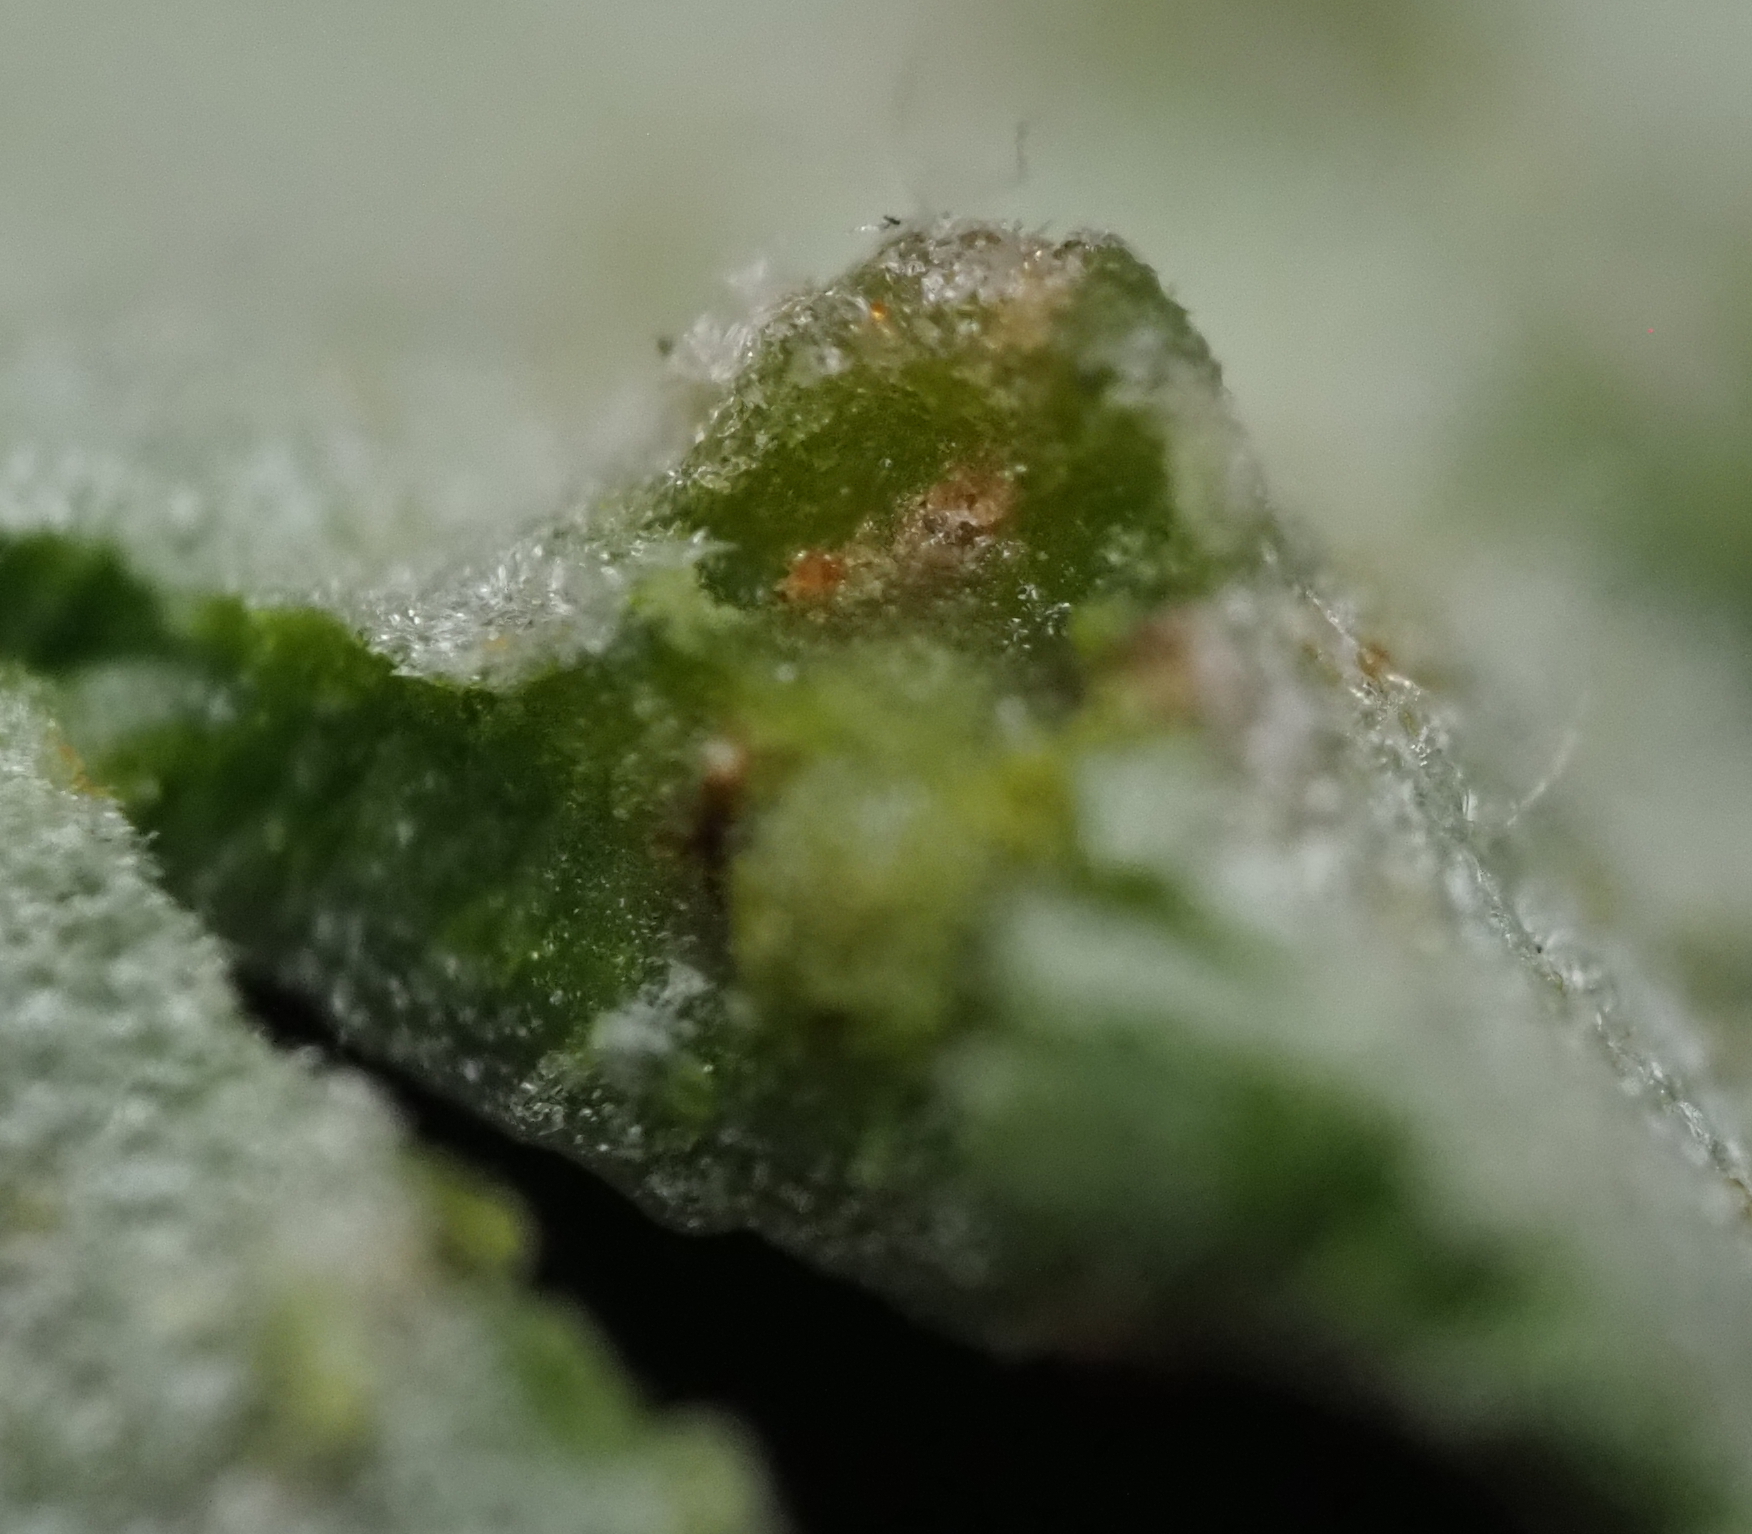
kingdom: Animalia
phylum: Arthropoda
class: Insecta
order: Hymenoptera
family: Cynipidae
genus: Neuroterus
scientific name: Neuroterus
